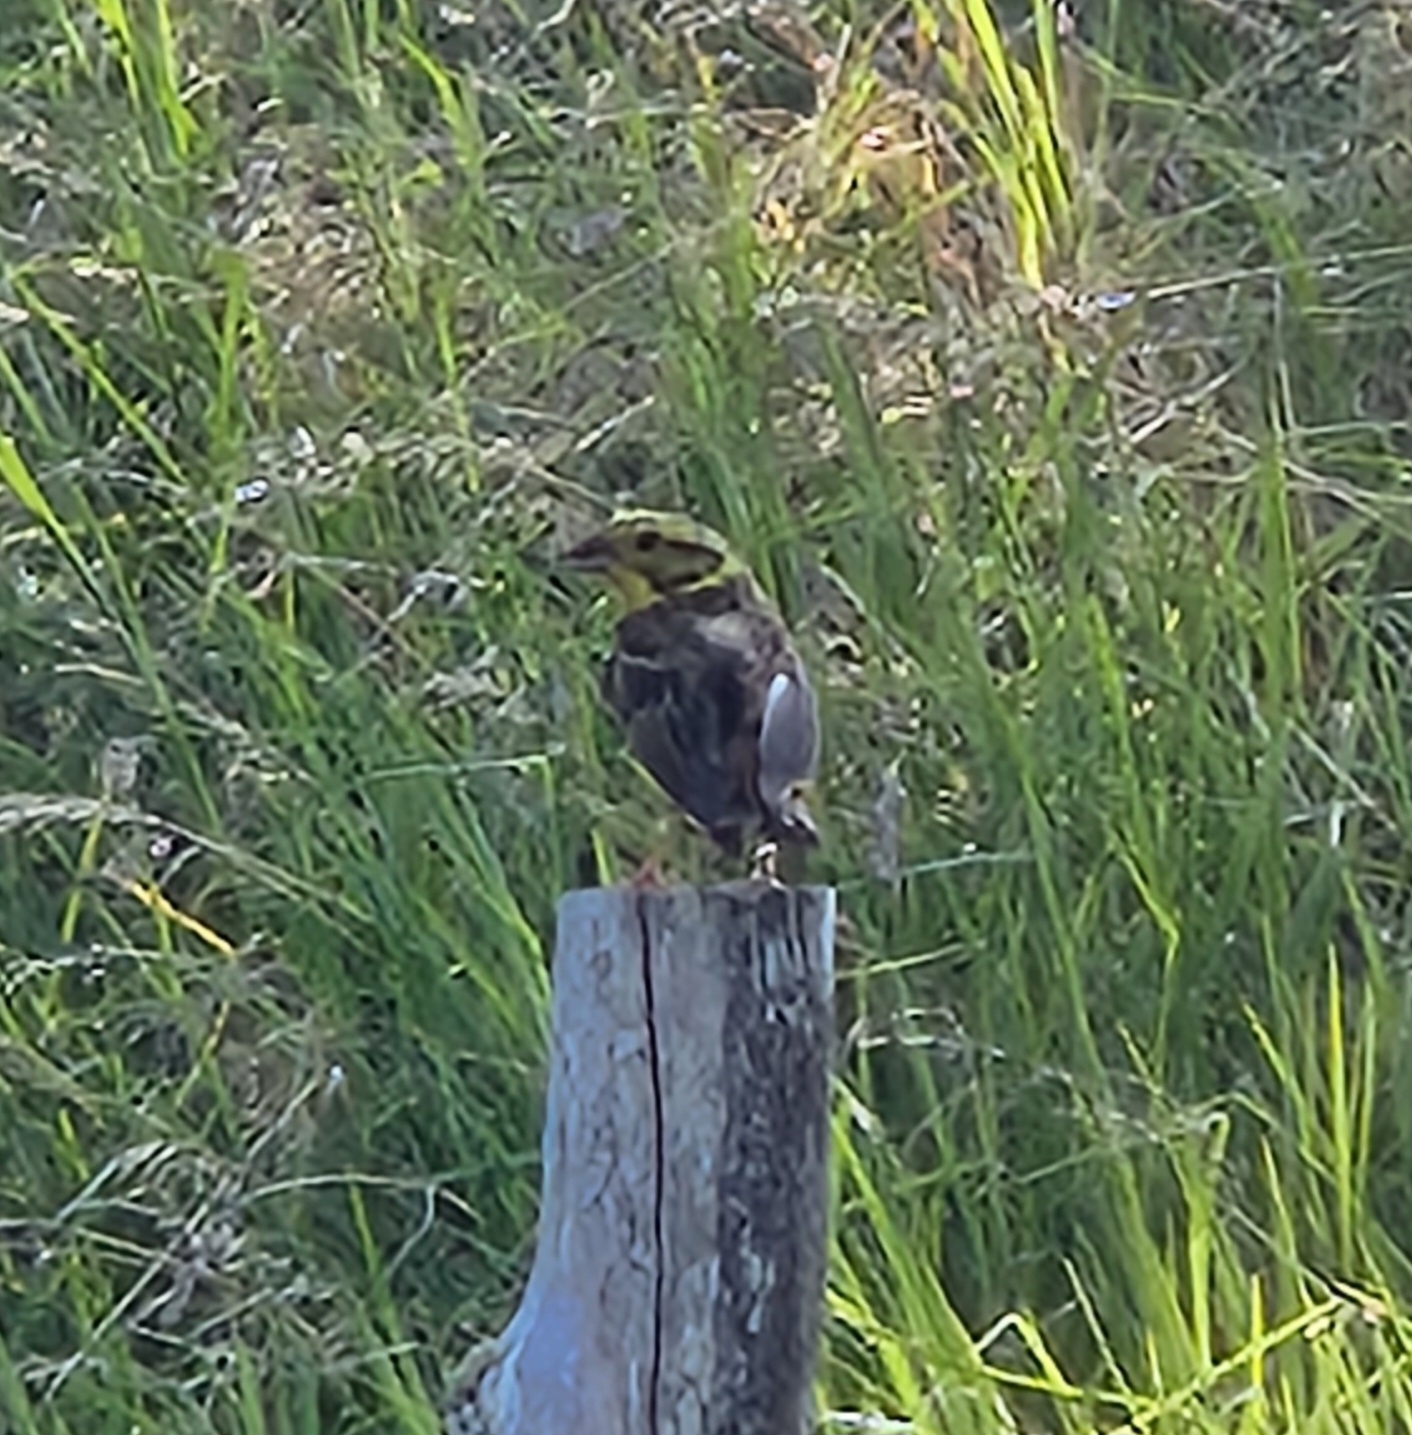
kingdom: Animalia
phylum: Chordata
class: Aves
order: Passeriformes
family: Emberizidae
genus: Emberiza
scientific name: Emberiza citrinella
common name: Yellowhammer
